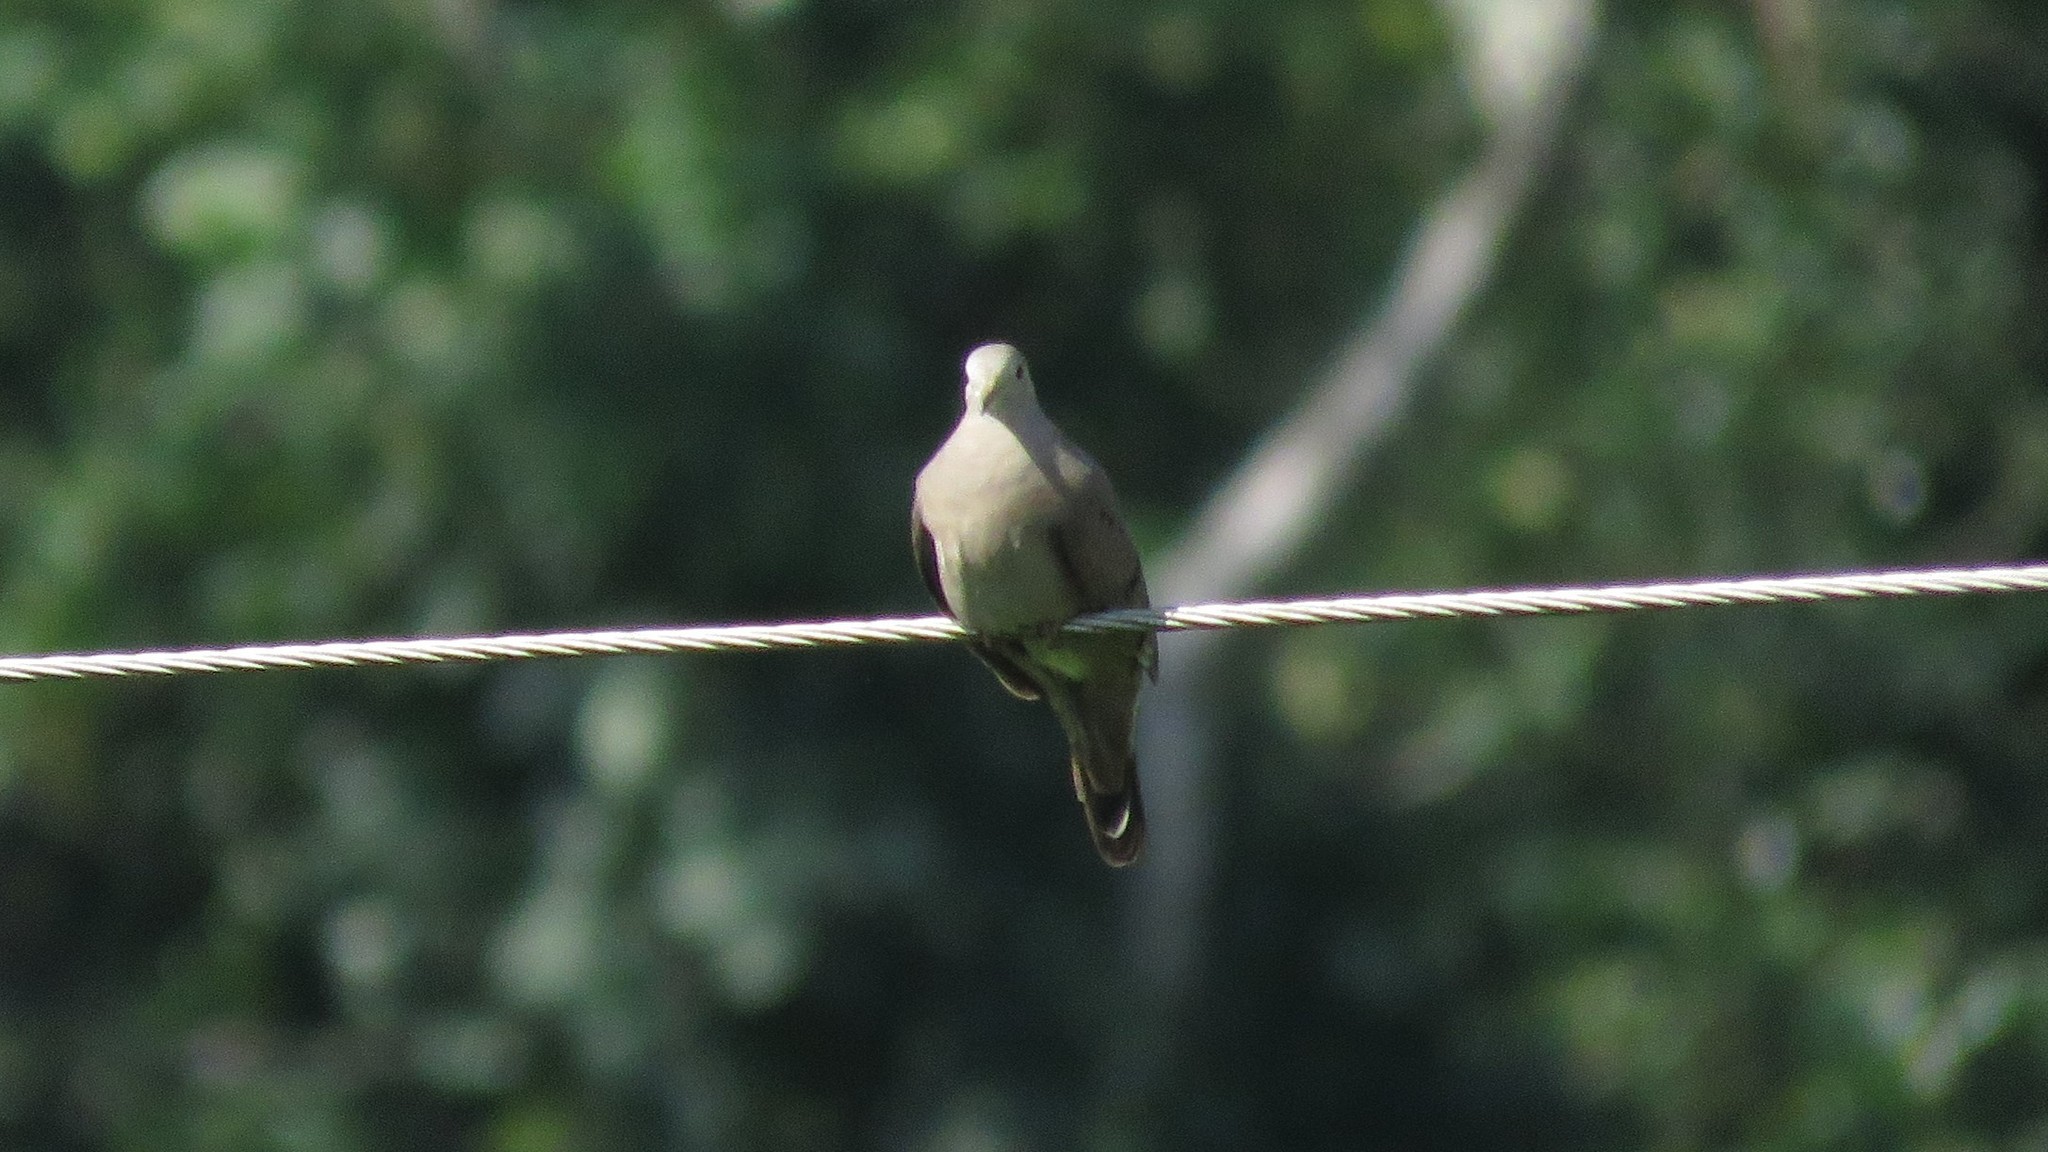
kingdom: Animalia
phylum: Chordata
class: Aves
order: Columbiformes
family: Columbidae
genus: Columbina
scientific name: Columbina talpacoti
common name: Ruddy ground dove
